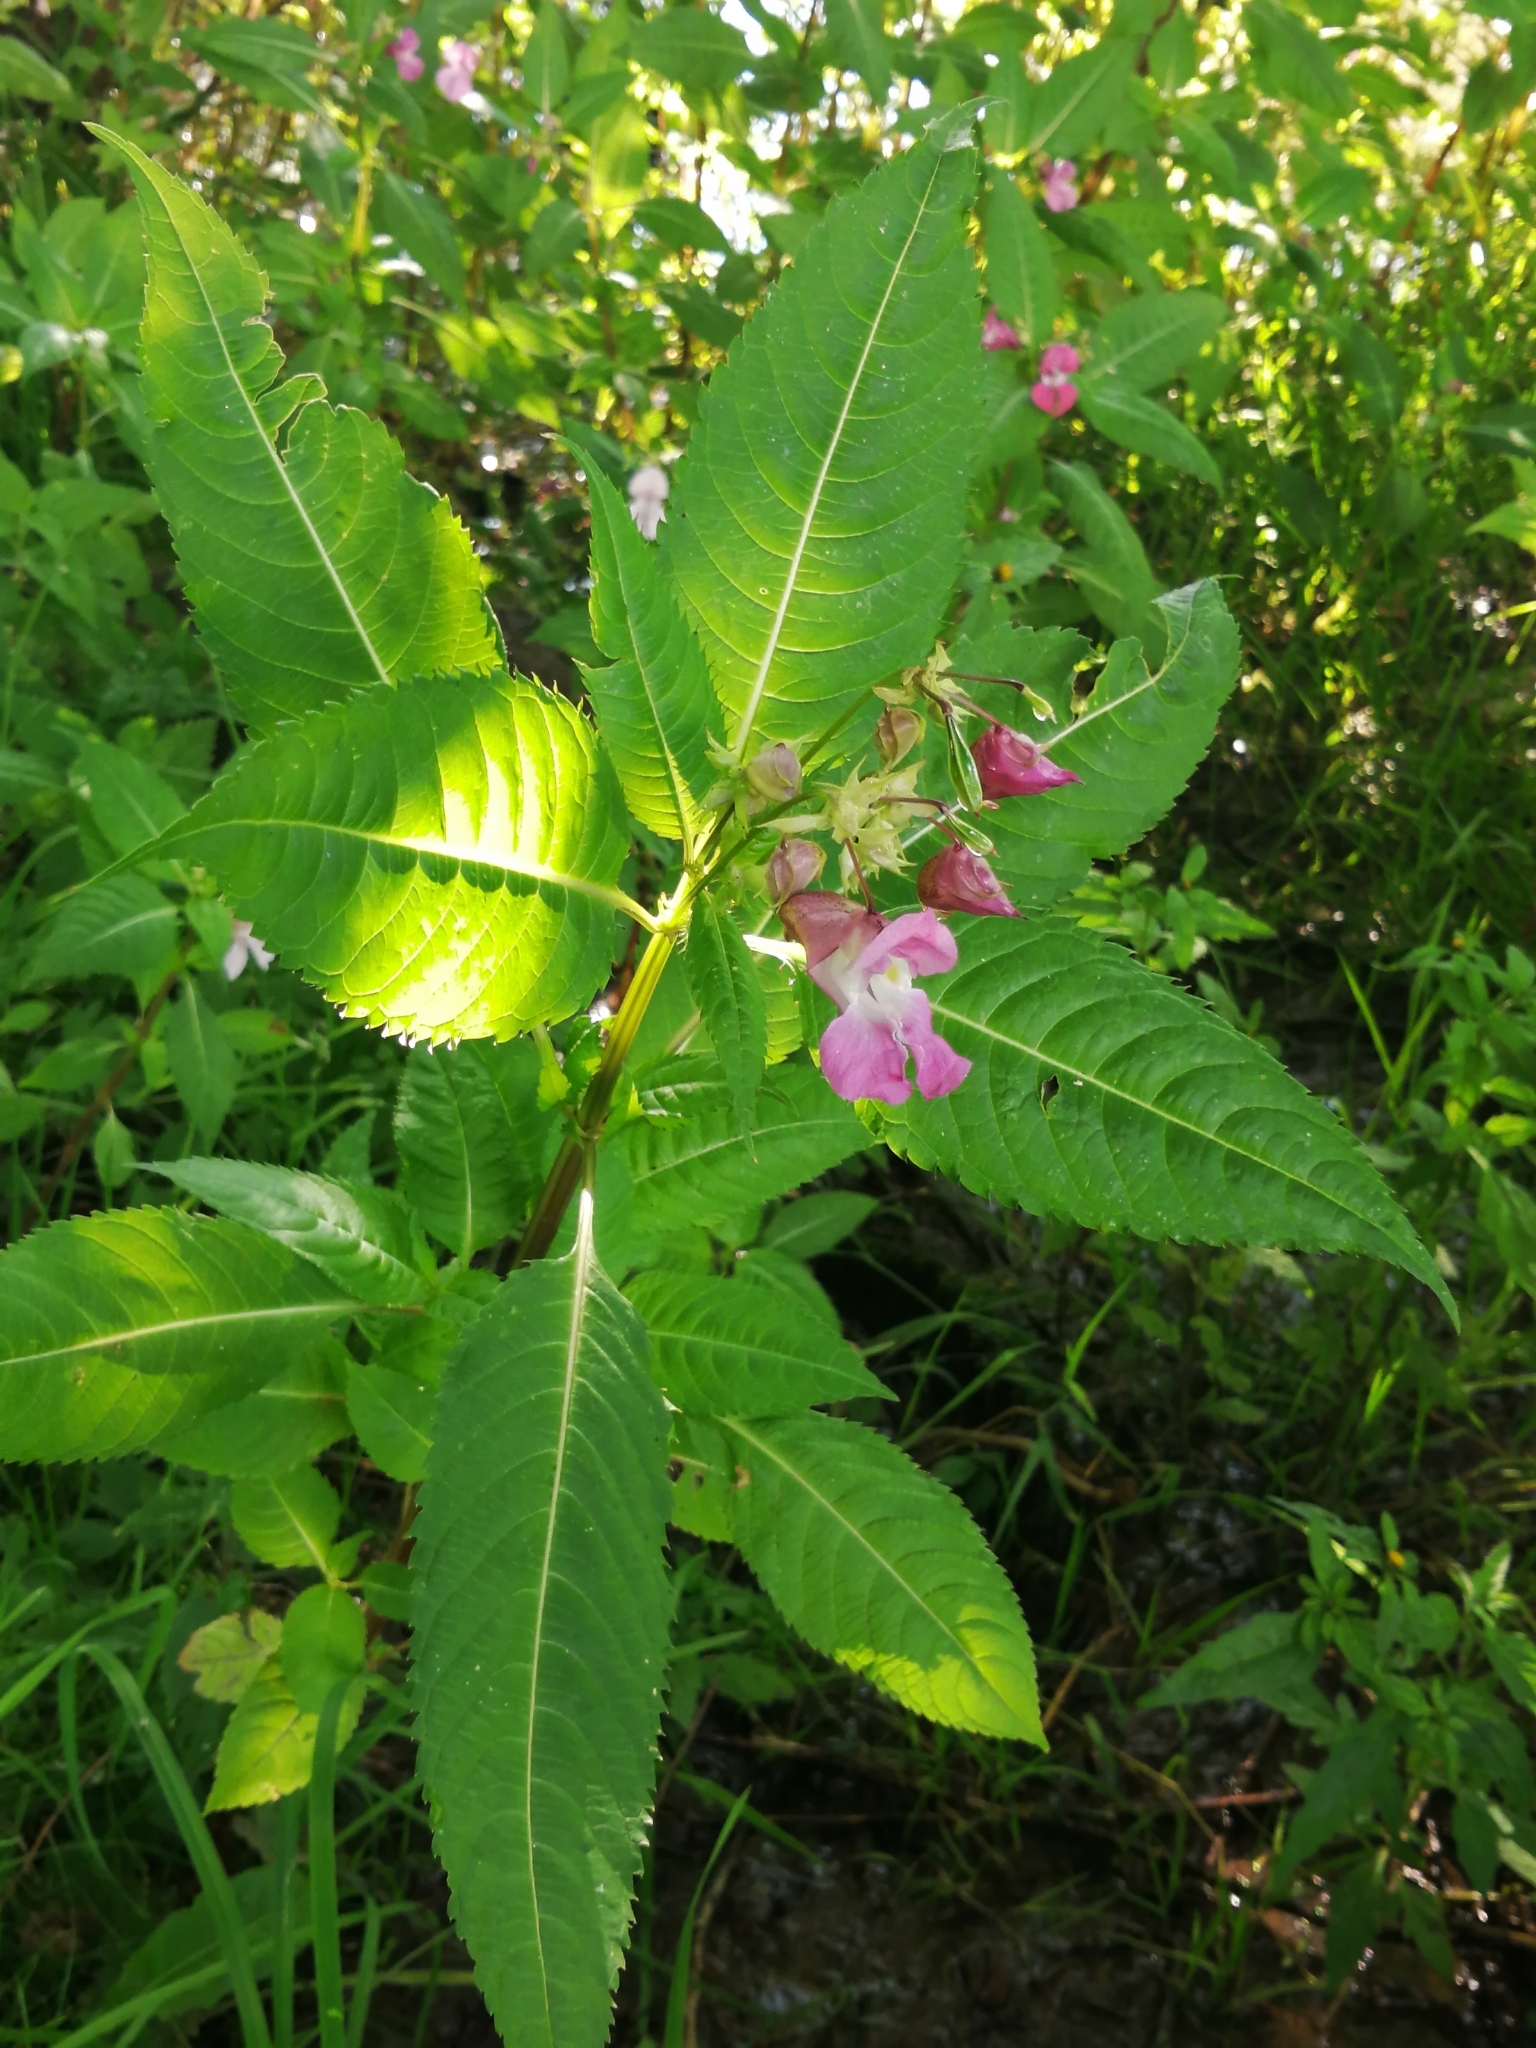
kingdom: Plantae
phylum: Tracheophyta
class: Magnoliopsida
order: Ericales
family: Balsaminaceae
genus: Impatiens
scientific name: Impatiens glandulifera
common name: Himalayan balsam
